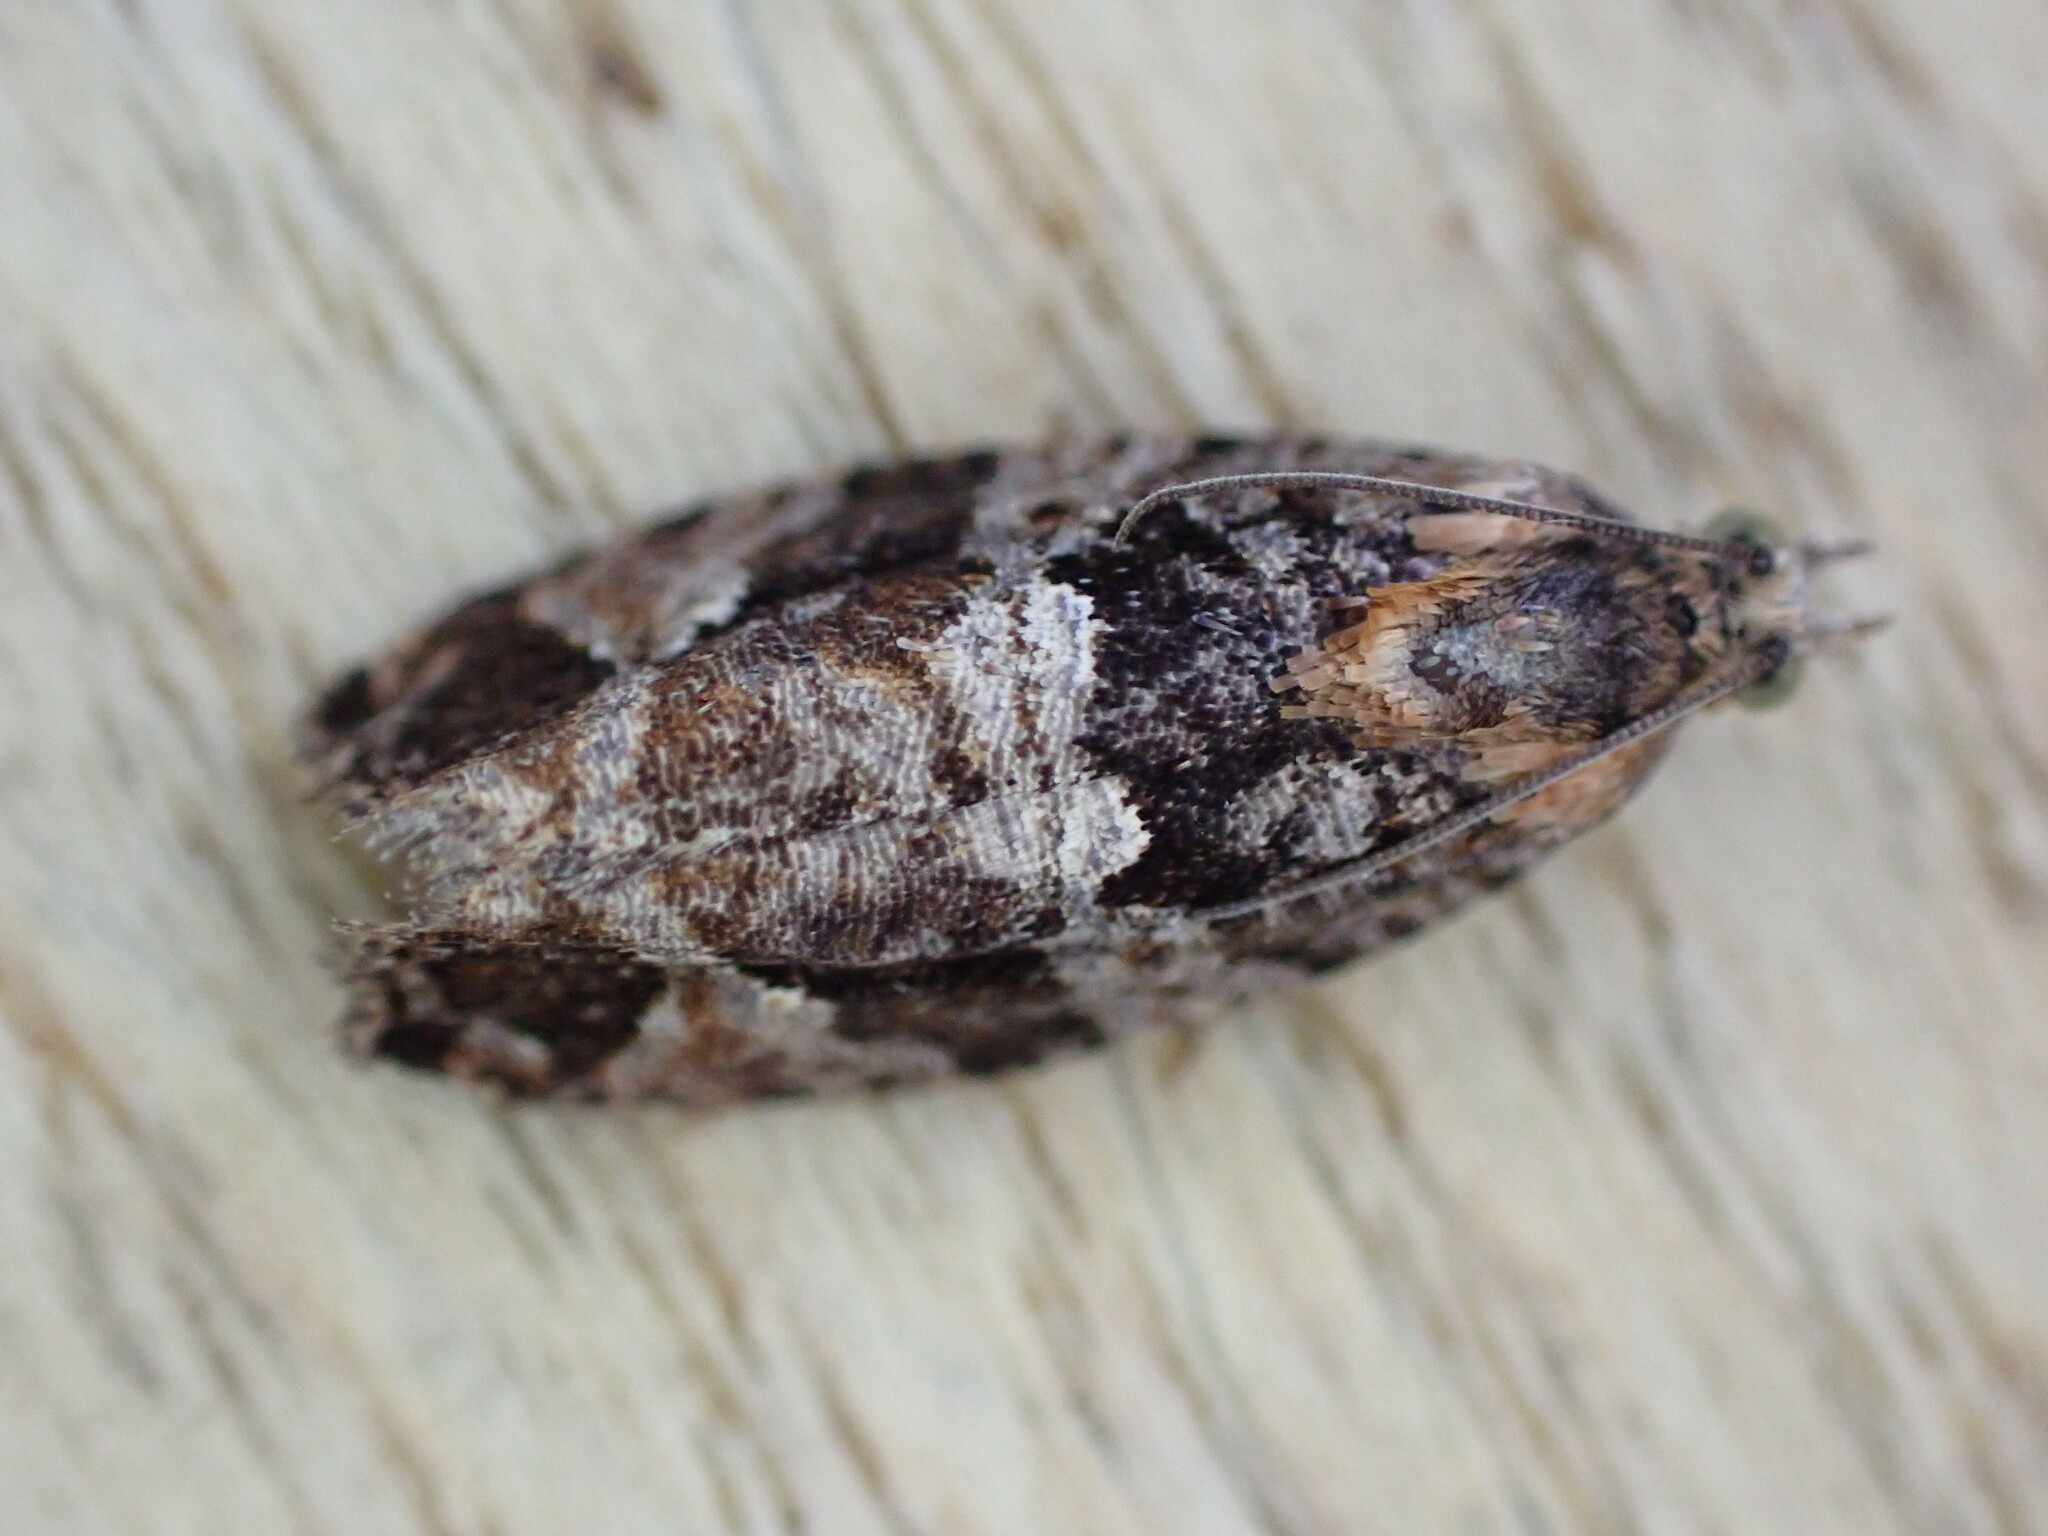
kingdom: Animalia
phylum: Arthropoda
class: Insecta
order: Lepidoptera
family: Tortricidae
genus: Eudemis
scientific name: Eudemis profundana
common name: Diamond-back marble
